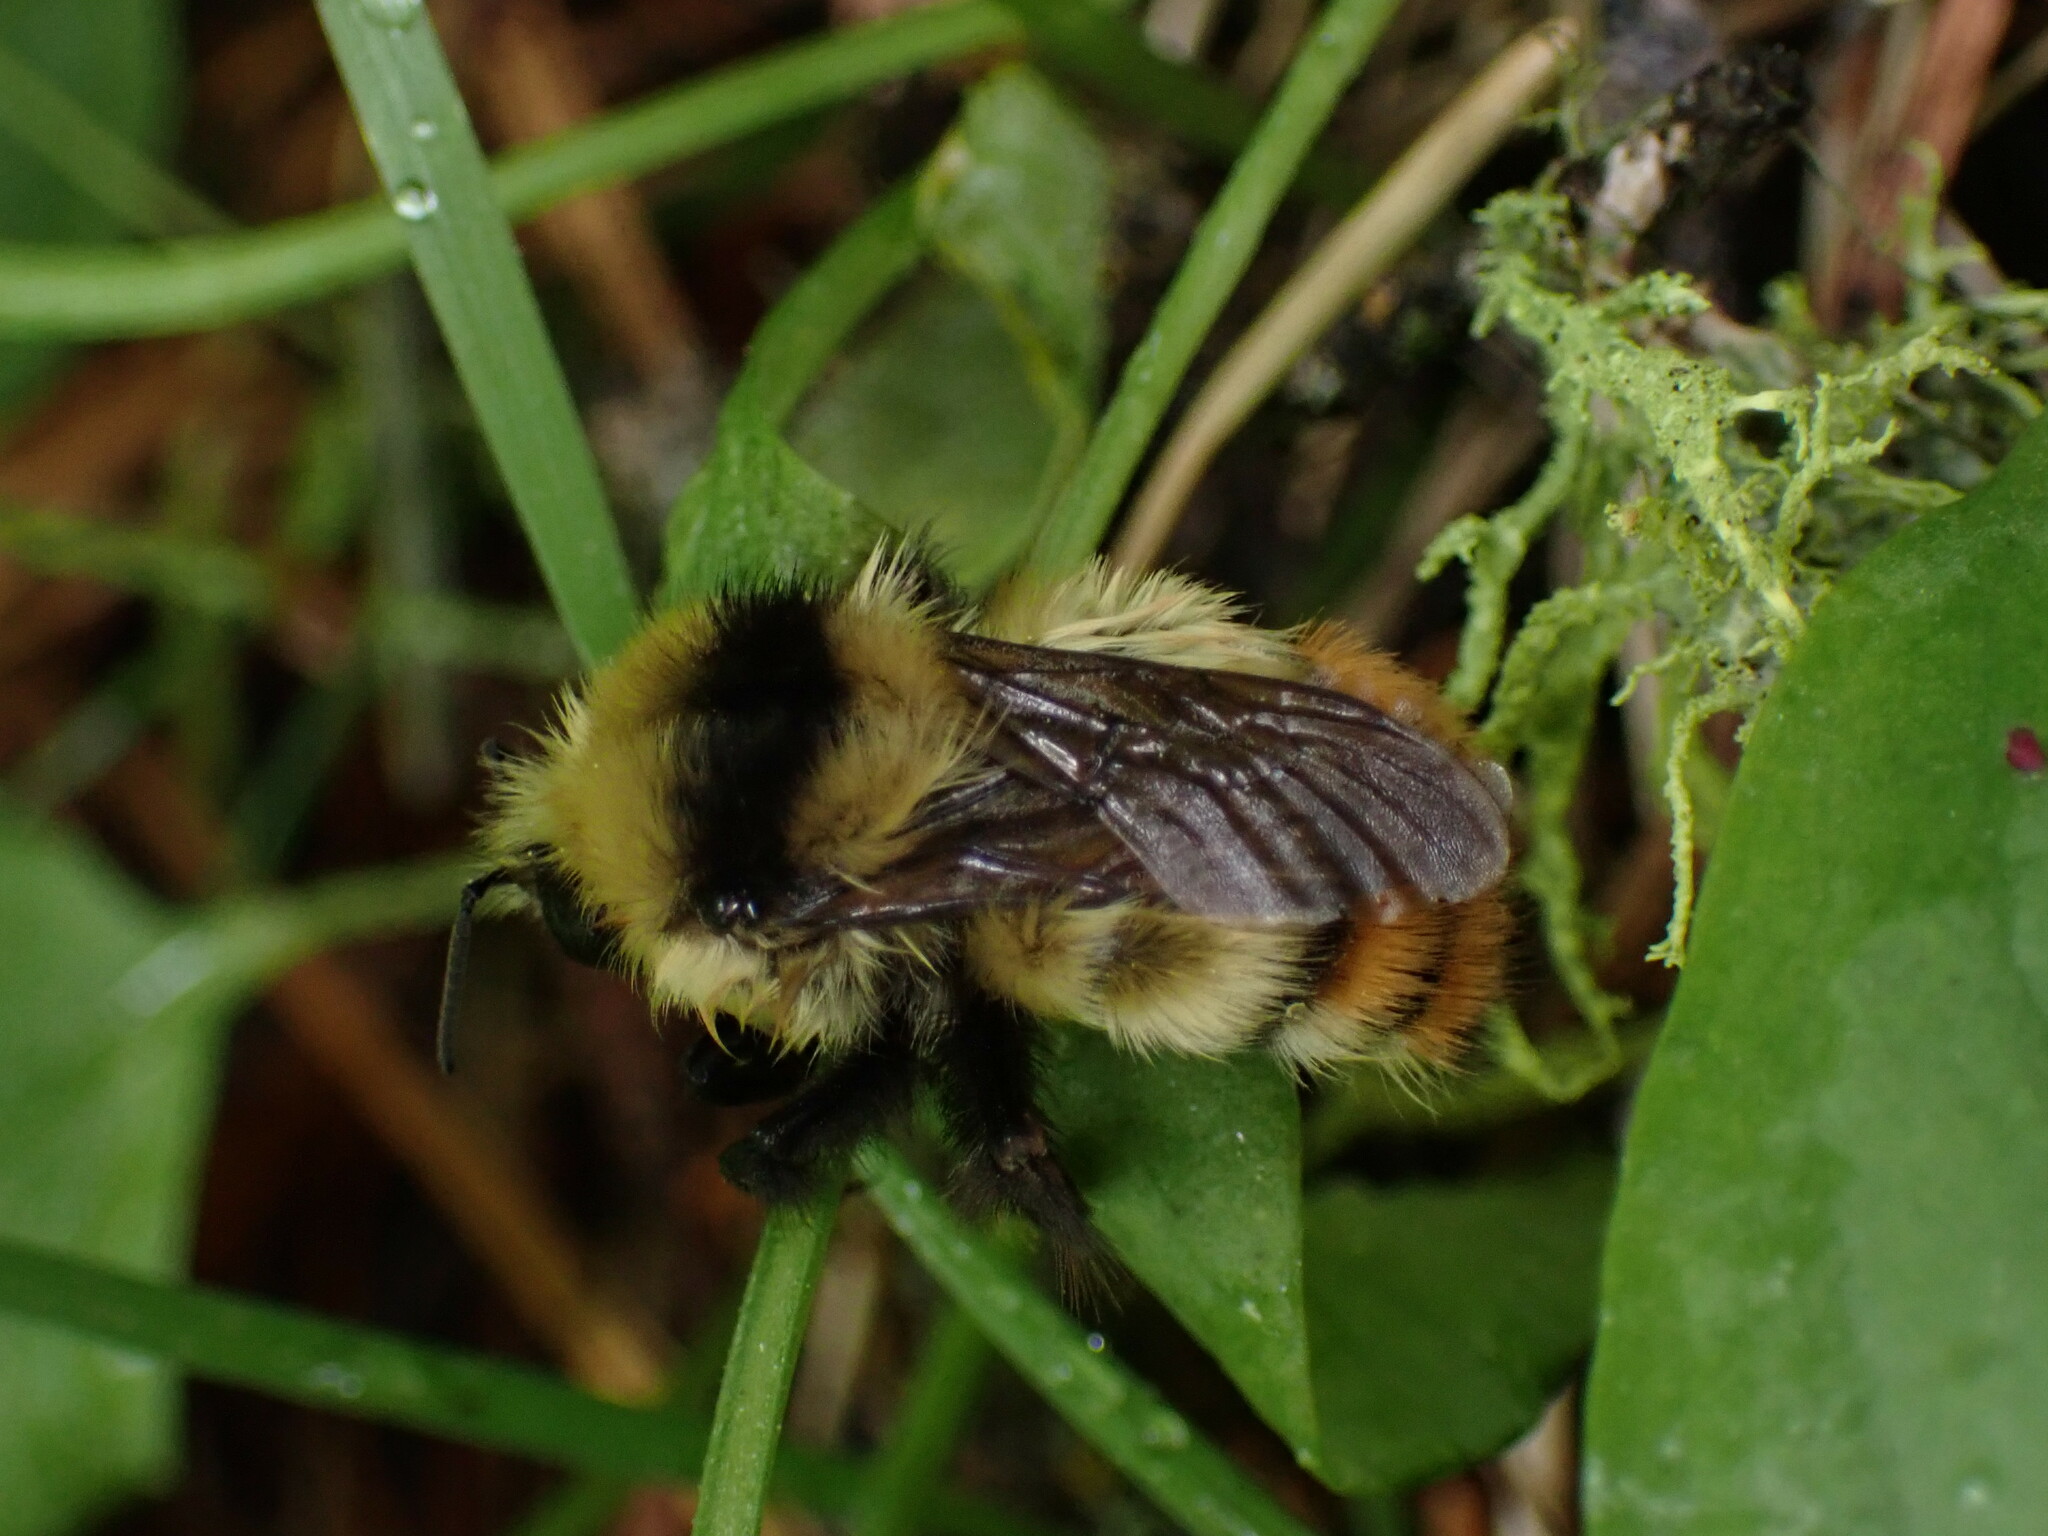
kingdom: Animalia
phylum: Arthropoda
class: Insecta
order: Hymenoptera
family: Apidae
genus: Bombus
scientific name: Bombus centralis
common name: Central bumble bee
